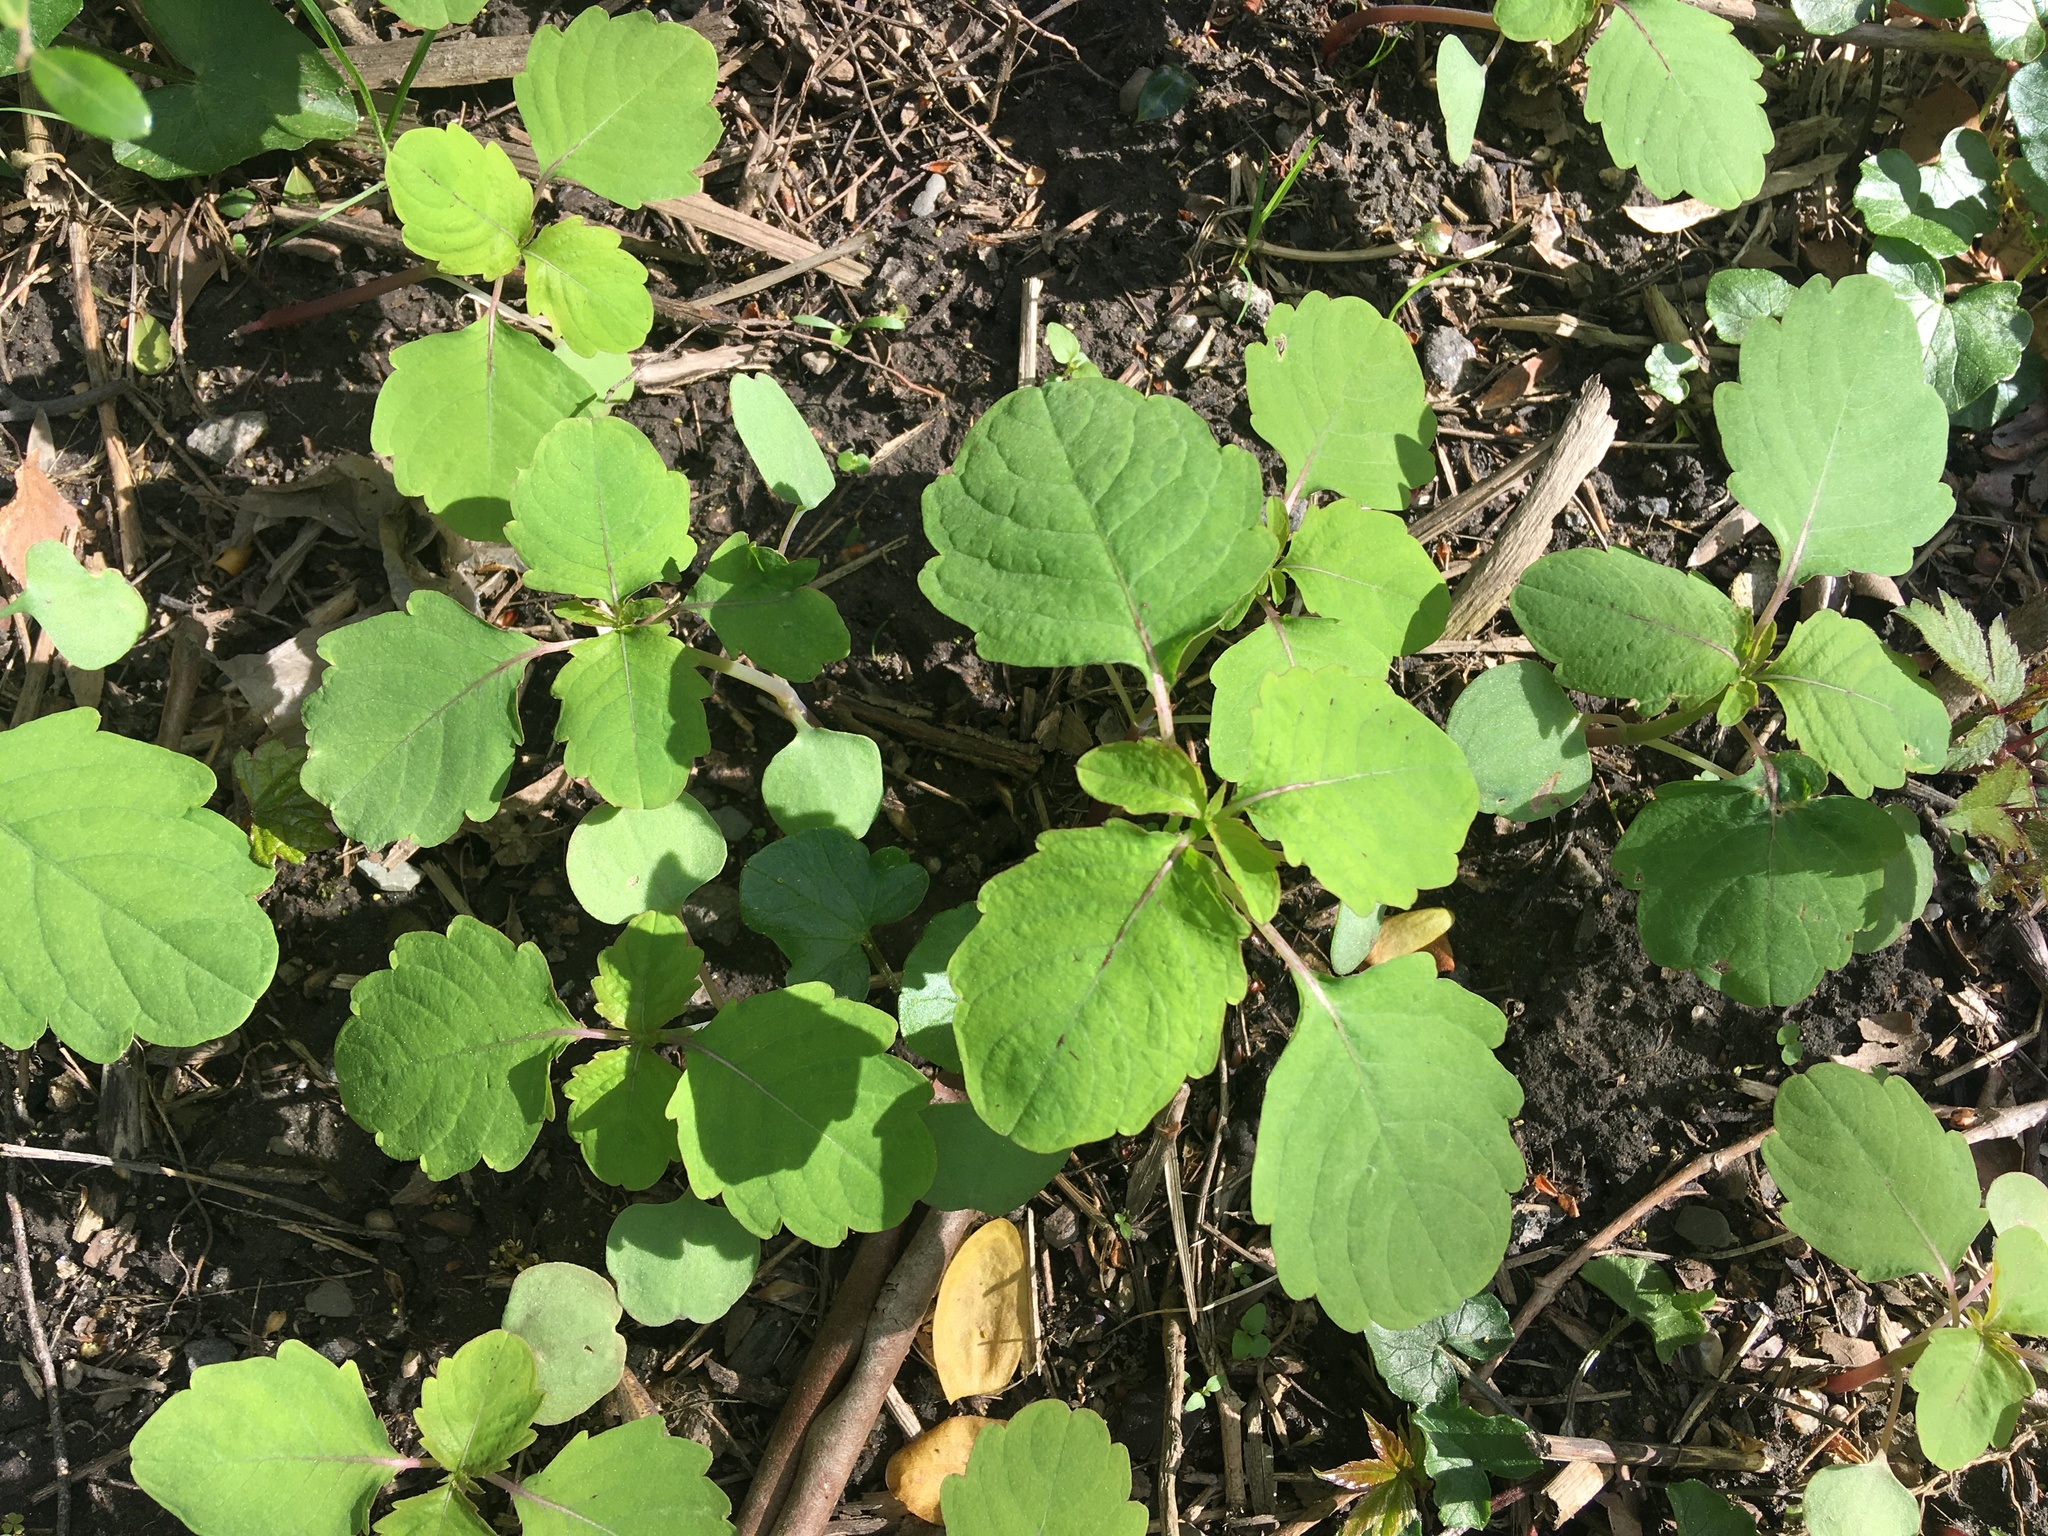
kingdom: Plantae
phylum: Tracheophyta
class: Magnoliopsida
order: Ericales
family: Balsaminaceae
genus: Impatiens
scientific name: Impatiens capensis
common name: Orange balsam
